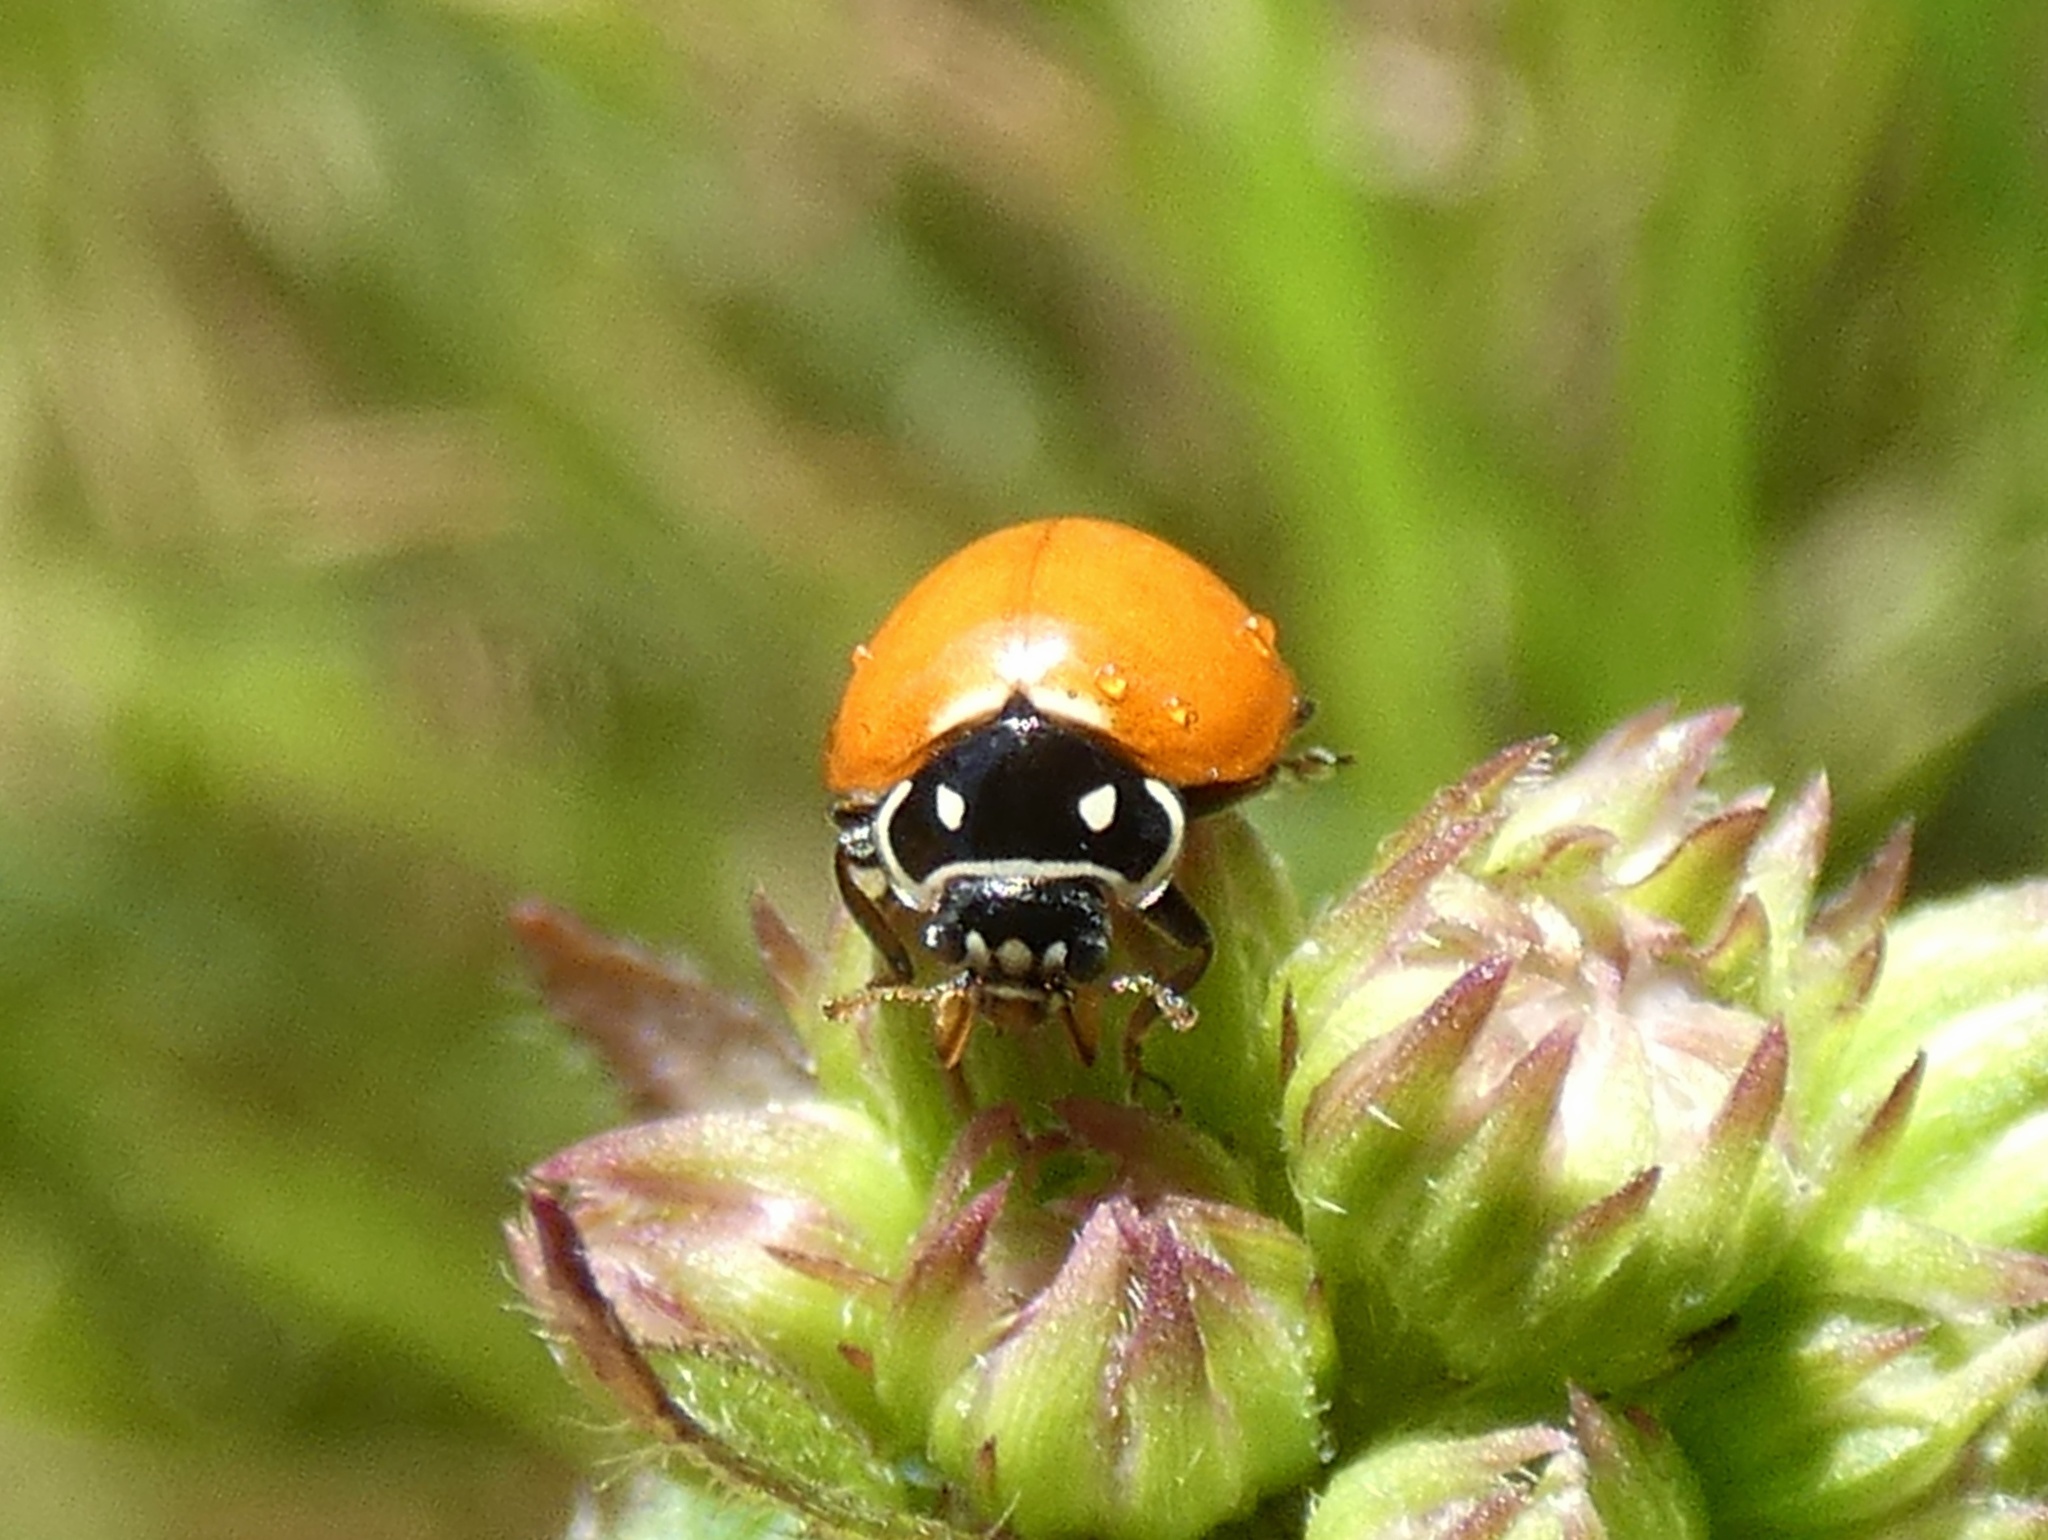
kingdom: Animalia
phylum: Arthropoda
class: Insecta
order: Coleoptera
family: Coccinellidae
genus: Cycloneda
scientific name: Cycloneda emarginata
